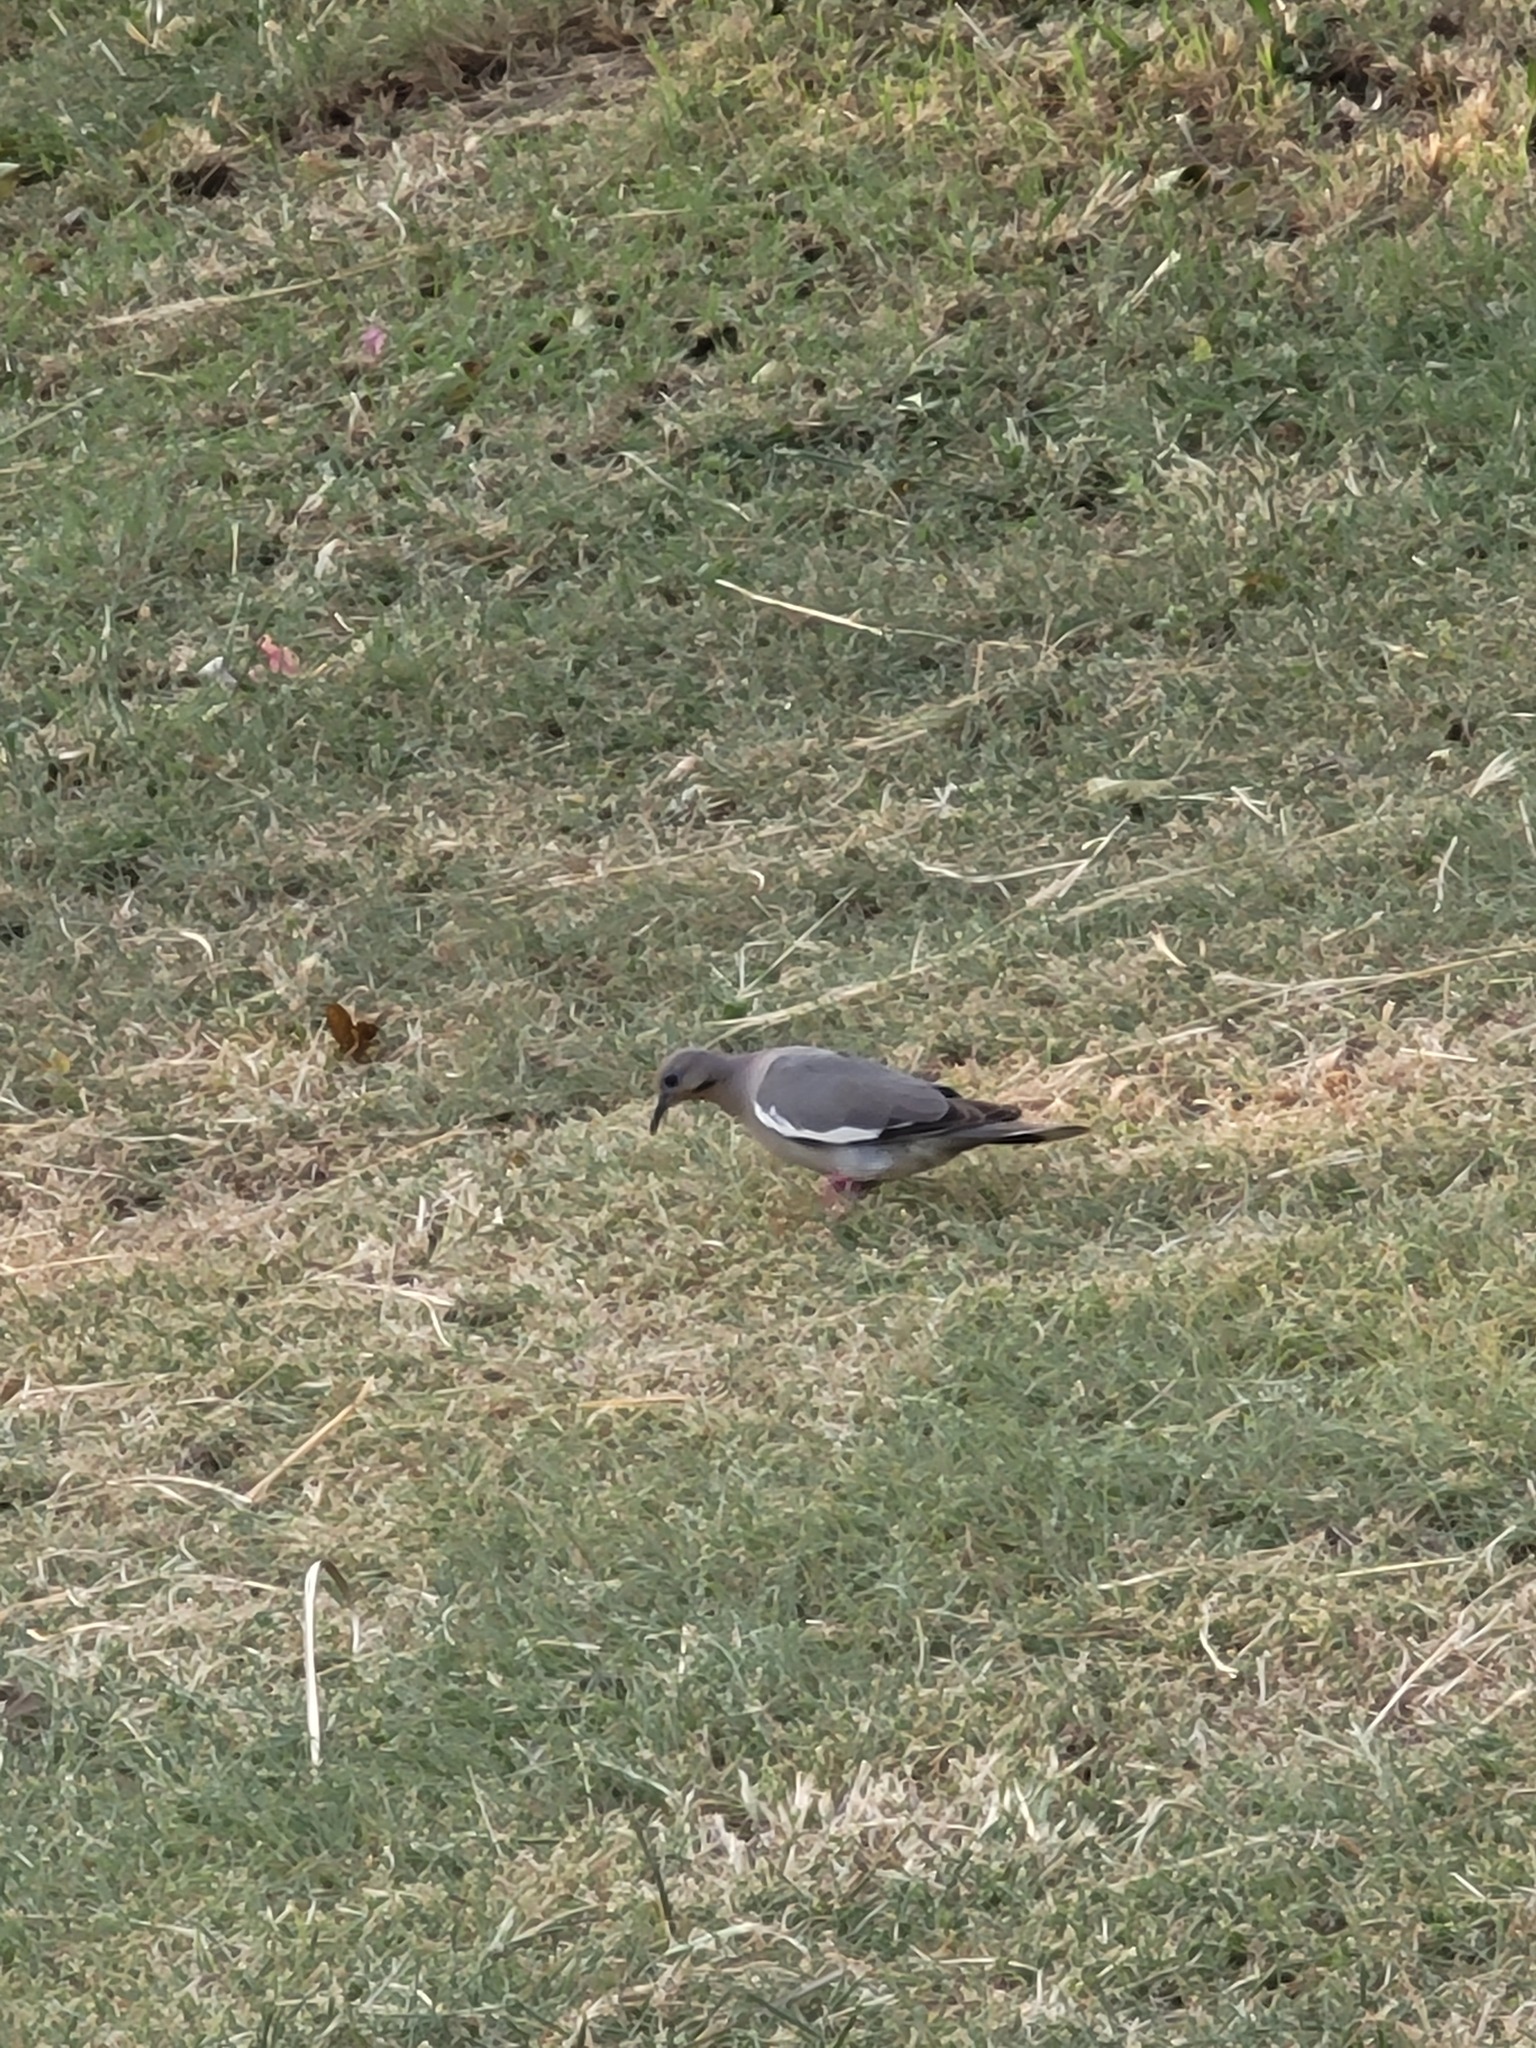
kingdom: Animalia
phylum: Chordata
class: Aves
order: Columbiformes
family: Columbidae
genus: Zenaida
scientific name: Zenaida asiatica
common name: White-winged dove
